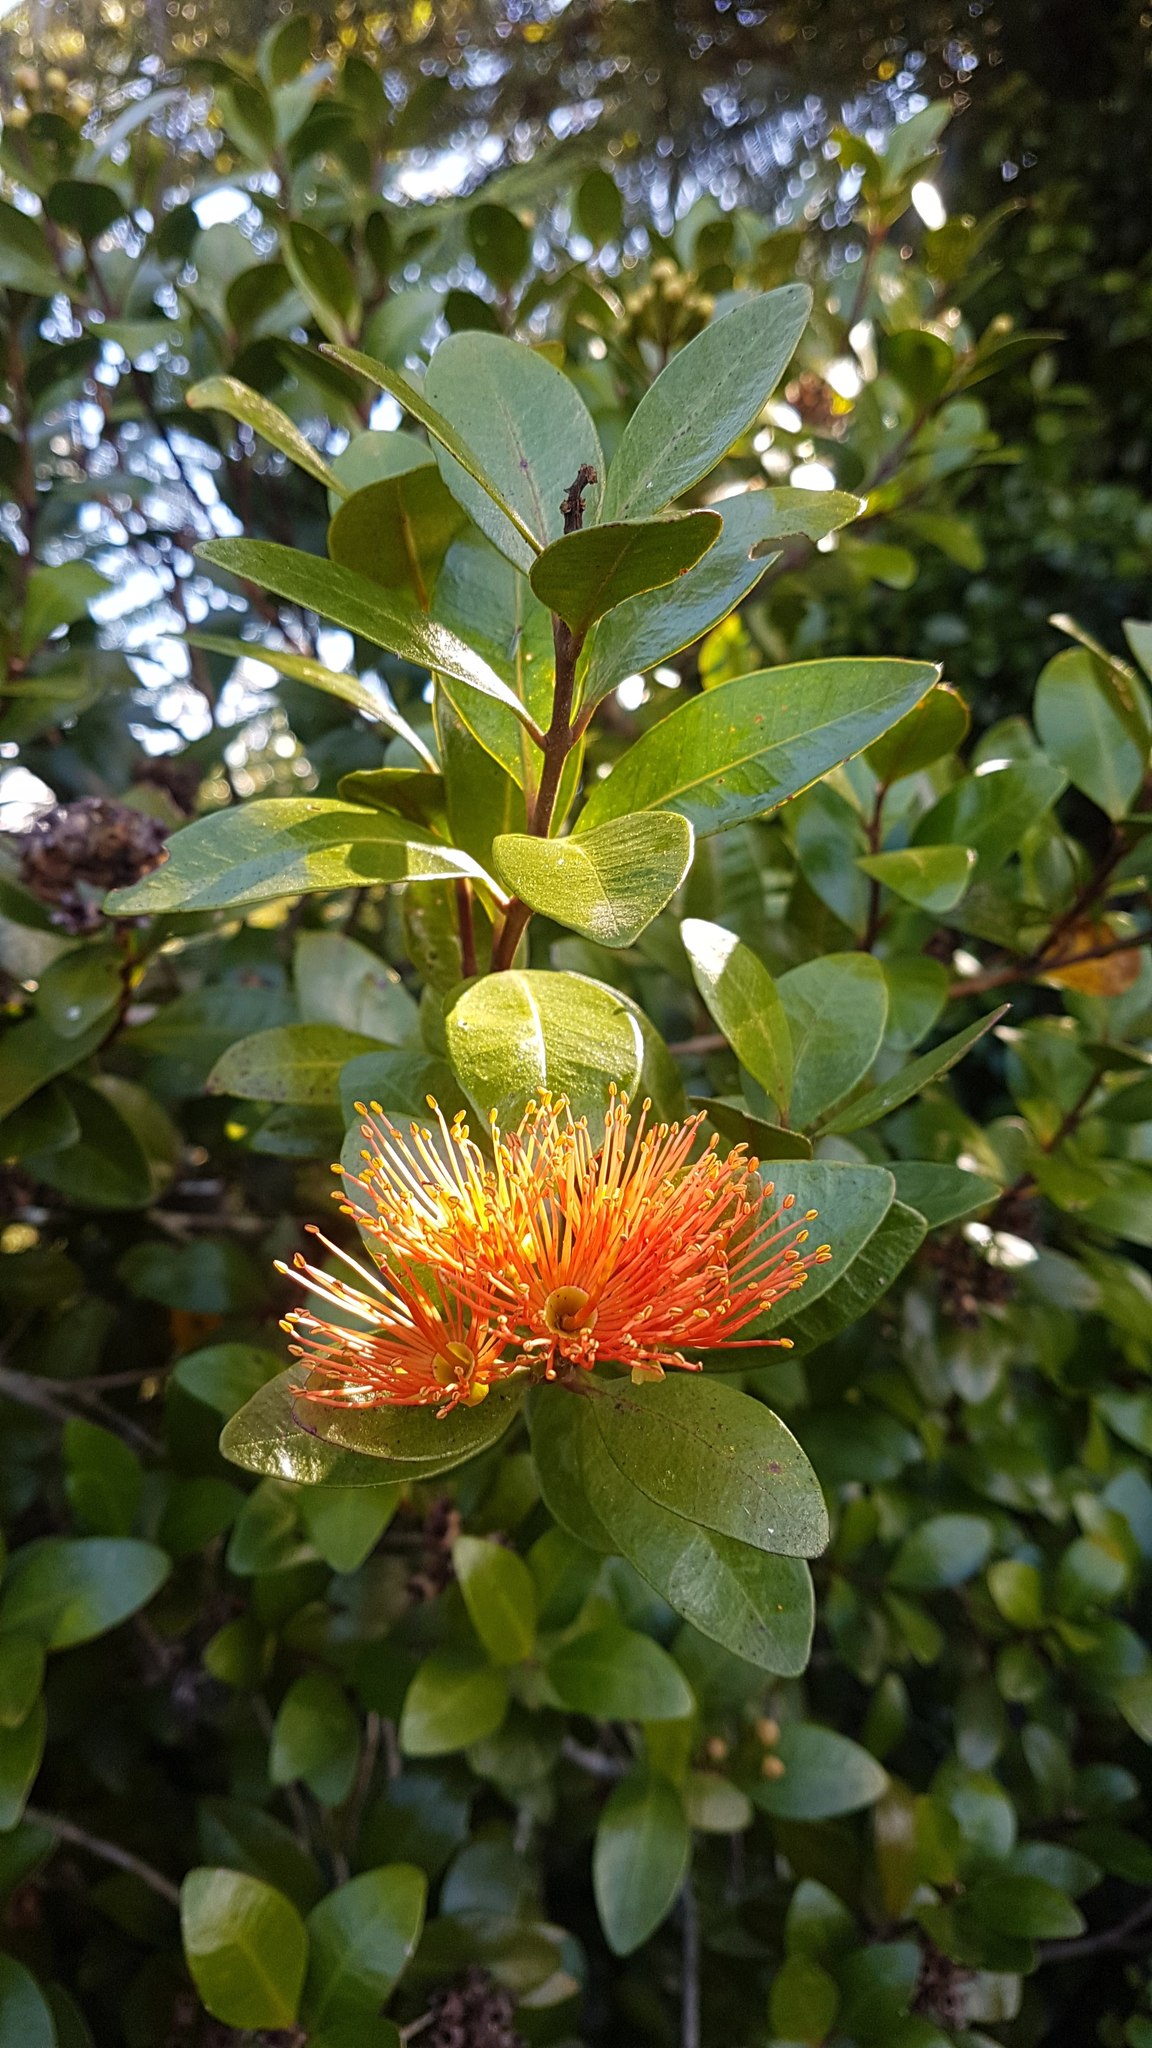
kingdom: Plantae
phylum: Tracheophyta
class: Magnoliopsida
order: Myrtales
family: Myrtaceae
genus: Metrosideros
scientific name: Metrosideros fulgens
